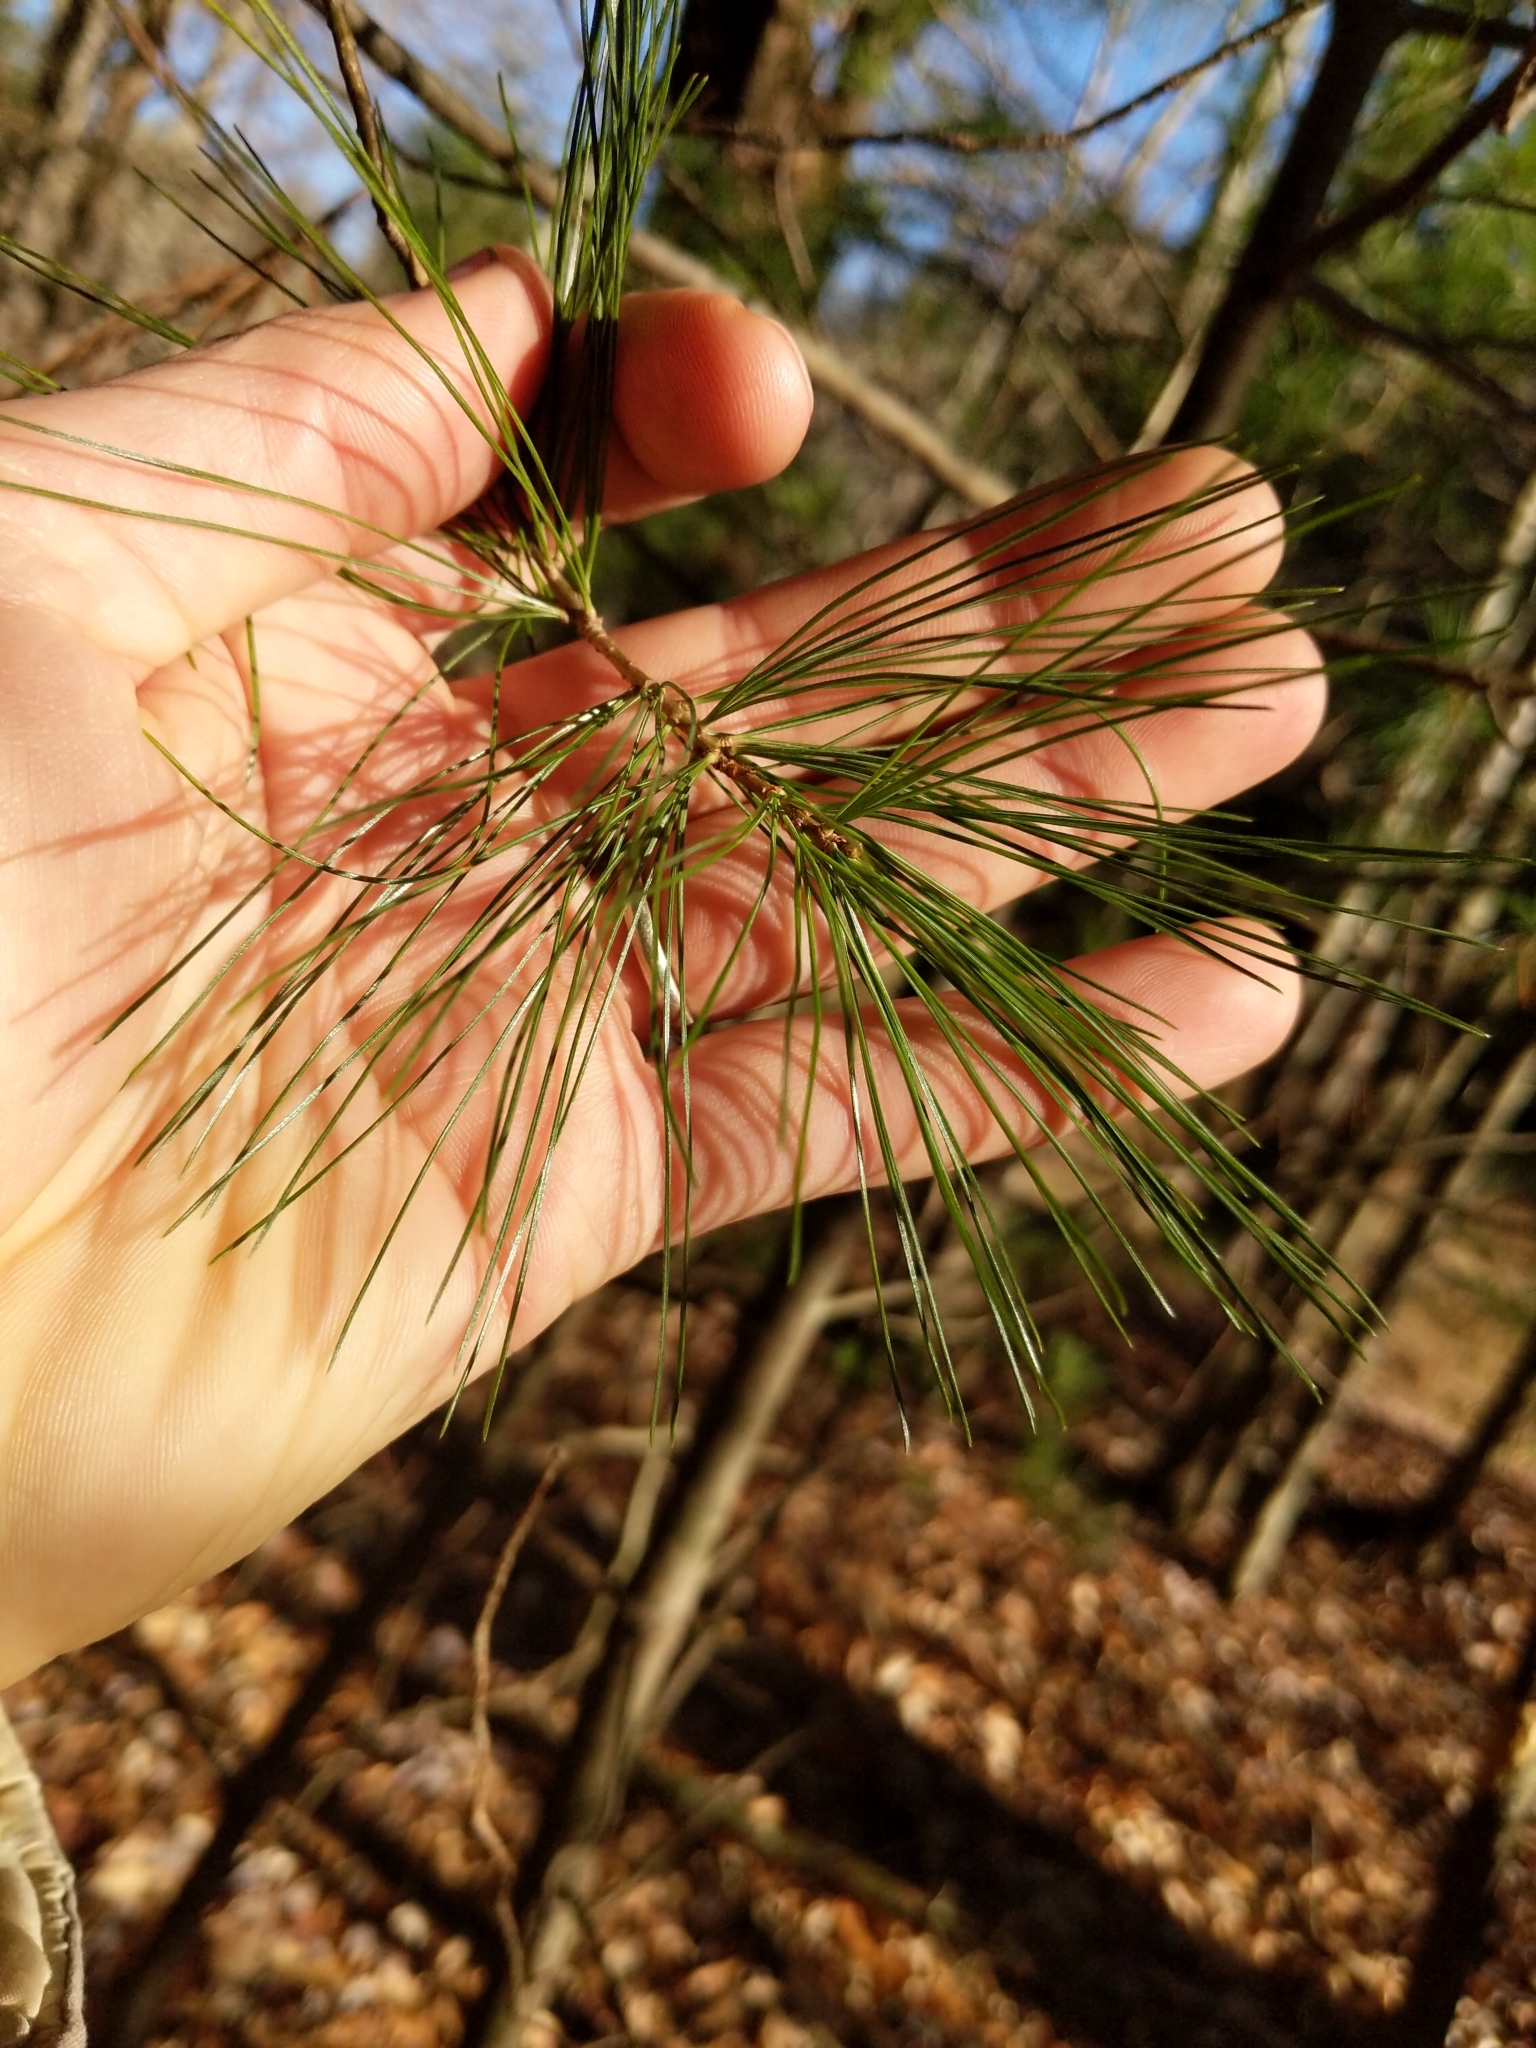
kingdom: Plantae
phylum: Tracheophyta
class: Pinopsida
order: Pinales
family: Pinaceae
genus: Pinus
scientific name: Pinus strobus
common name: Weymouth pine
